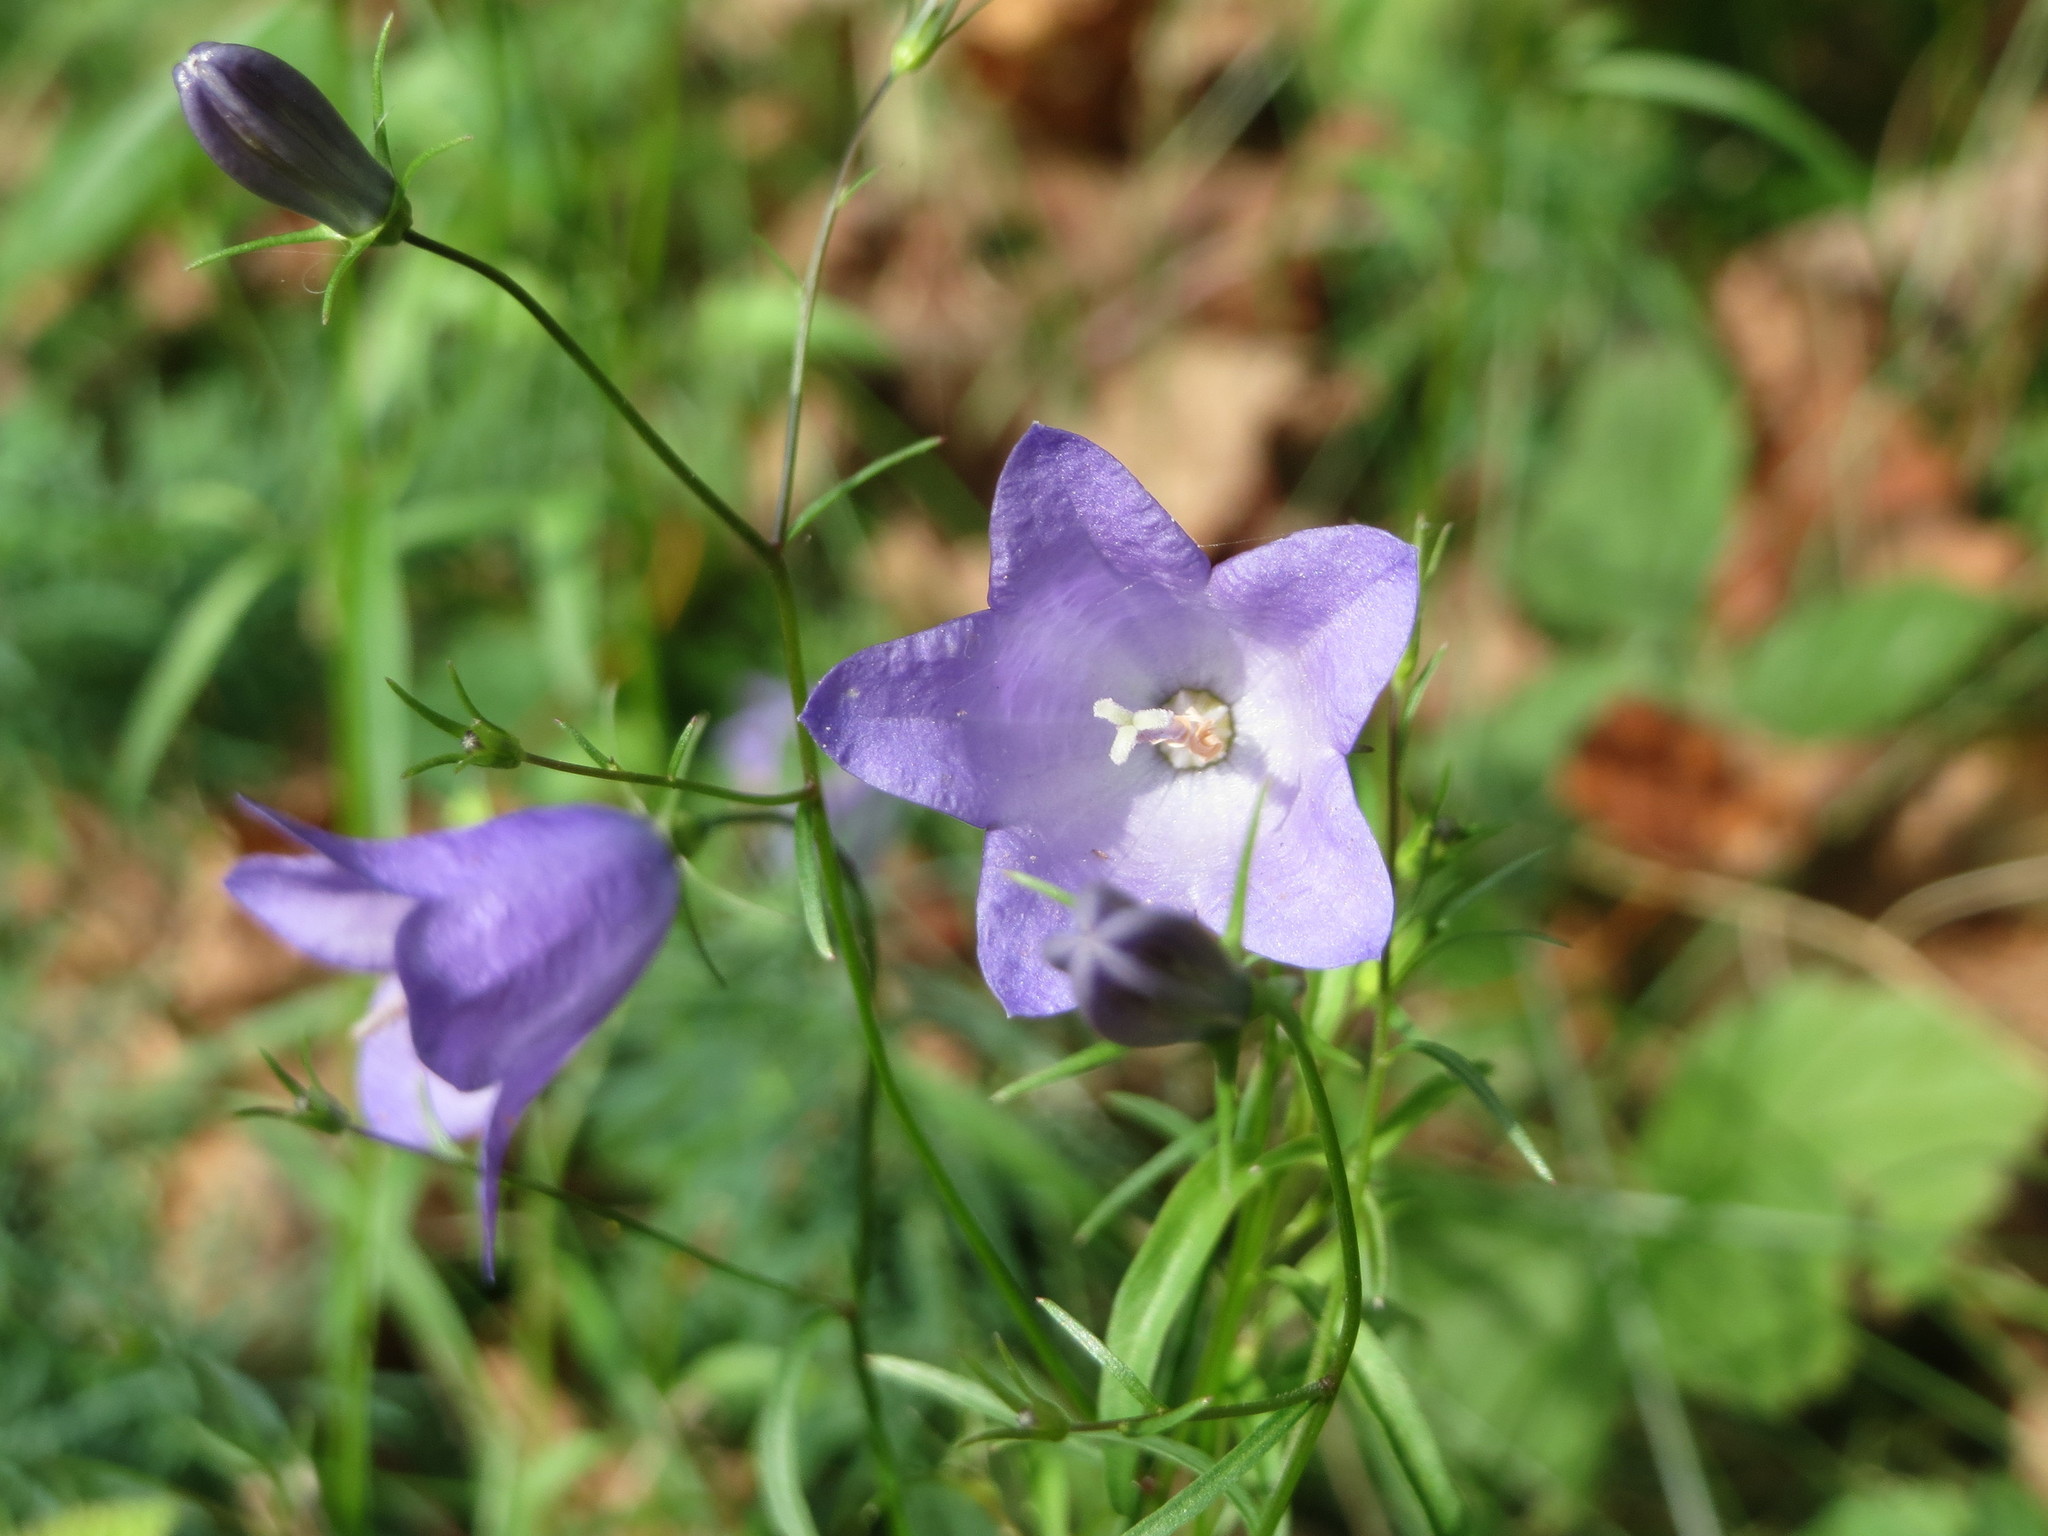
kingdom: Plantae
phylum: Tracheophyta
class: Magnoliopsida
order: Asterales
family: Campanulaceae
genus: Campanula
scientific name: Campanula rotundifolia
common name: Harebell
